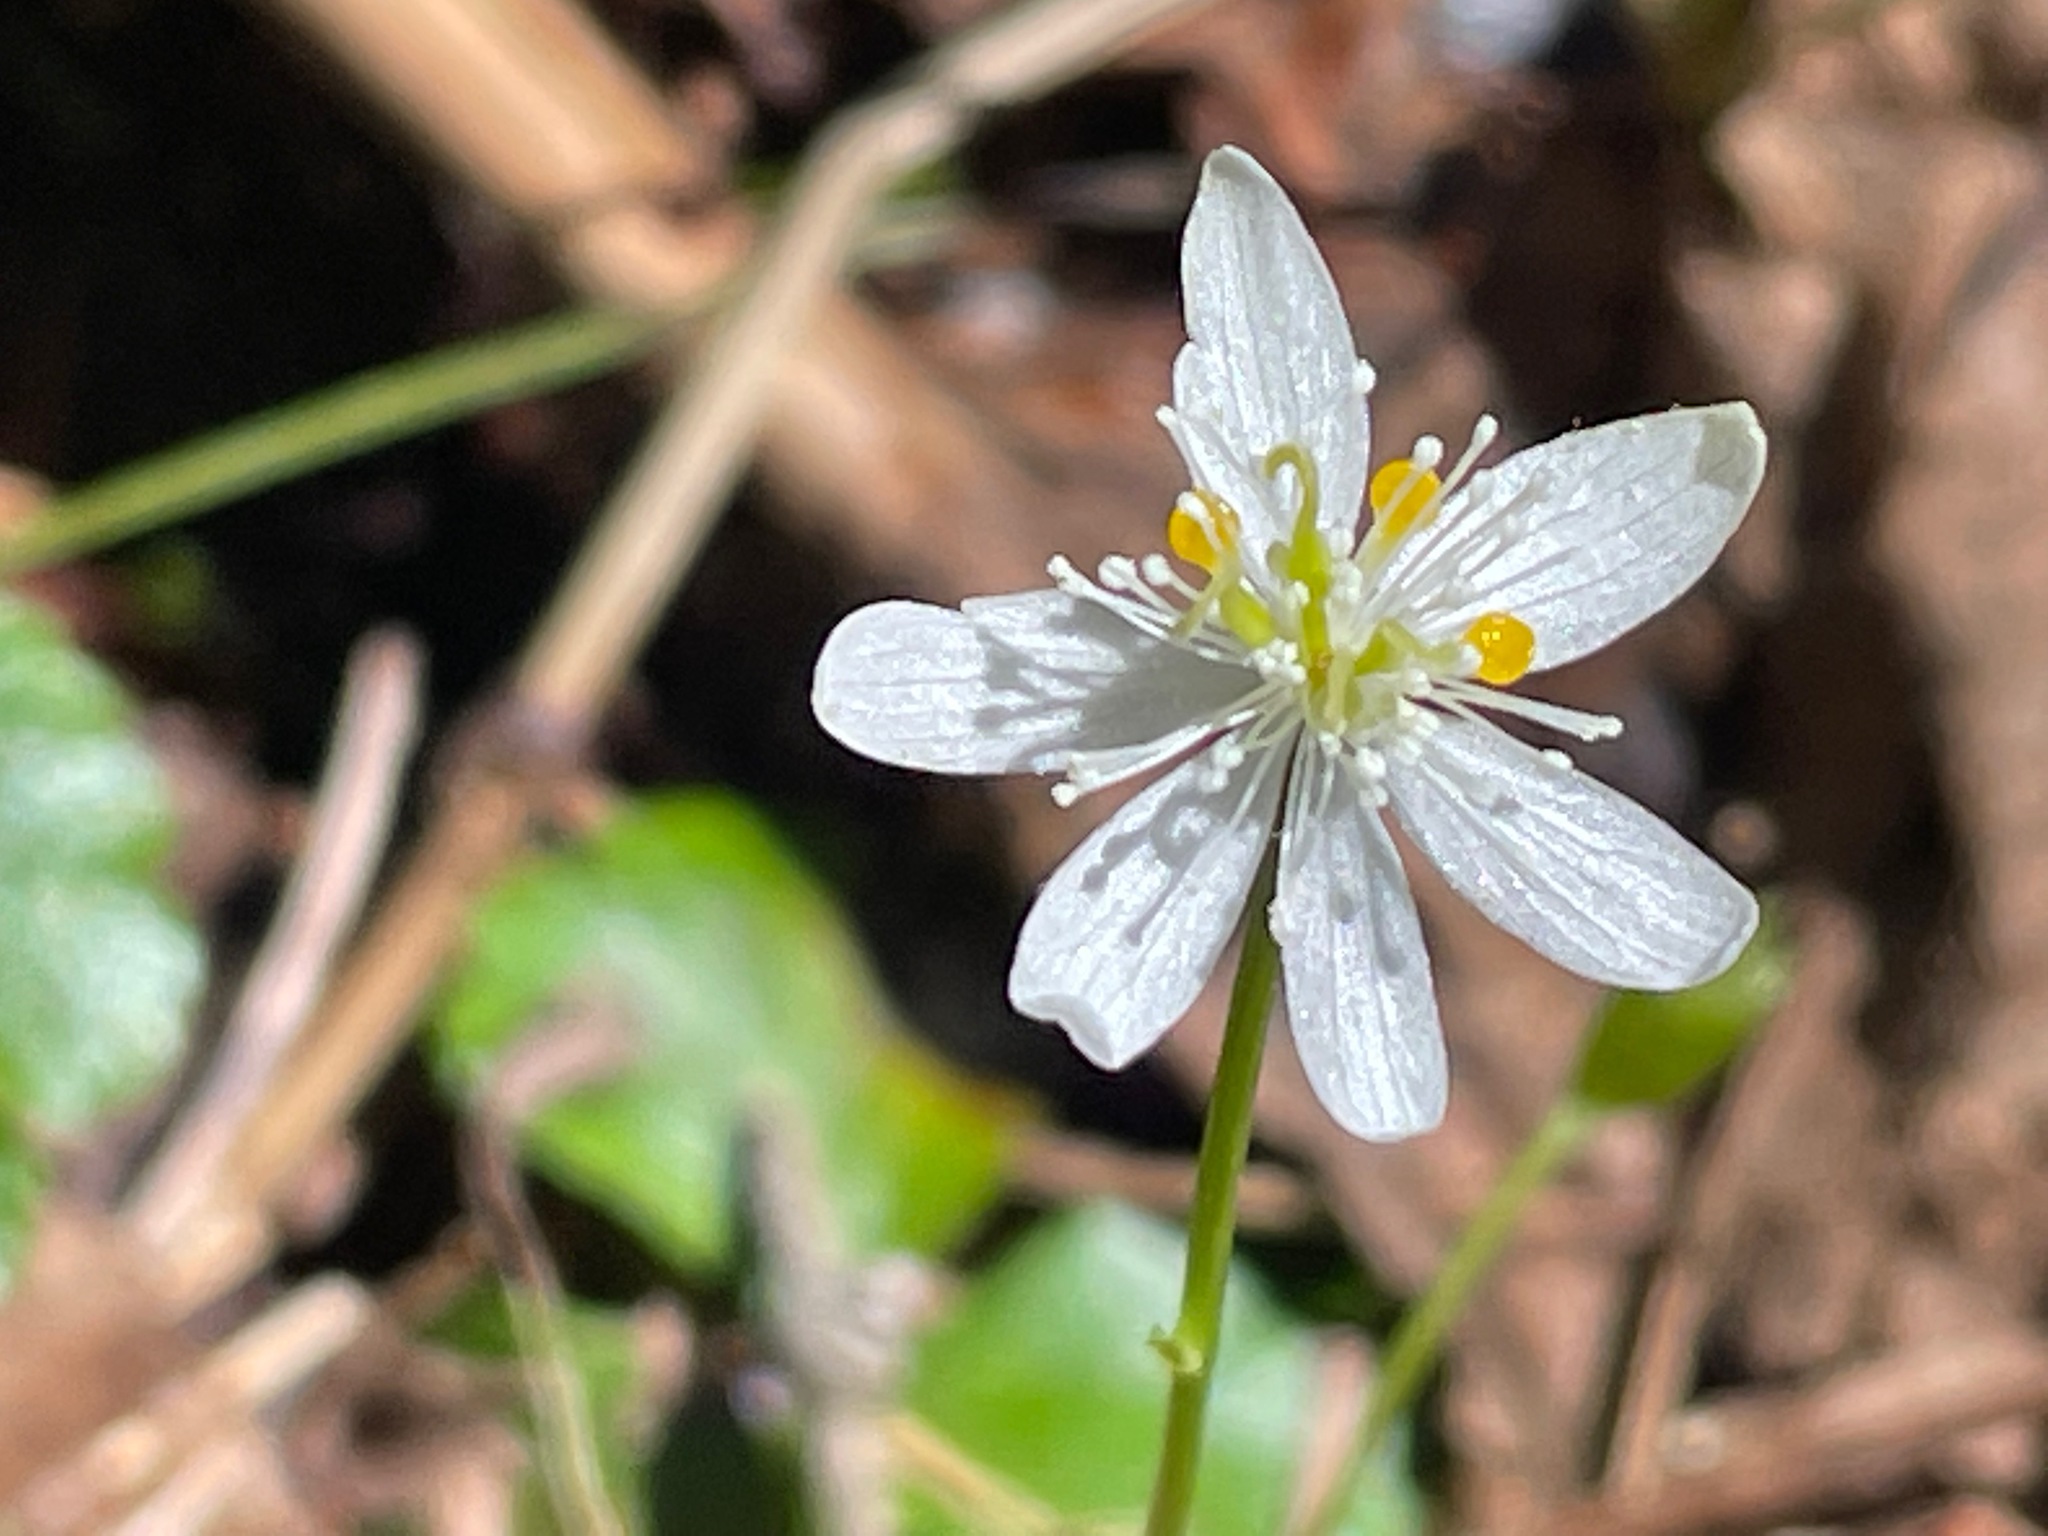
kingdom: Plantae
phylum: Tracheophyta
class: Magnoliopsida
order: Ranunculales
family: Ranunculaceae
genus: Coptis
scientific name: Coptis trifolia
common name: Canker-root
